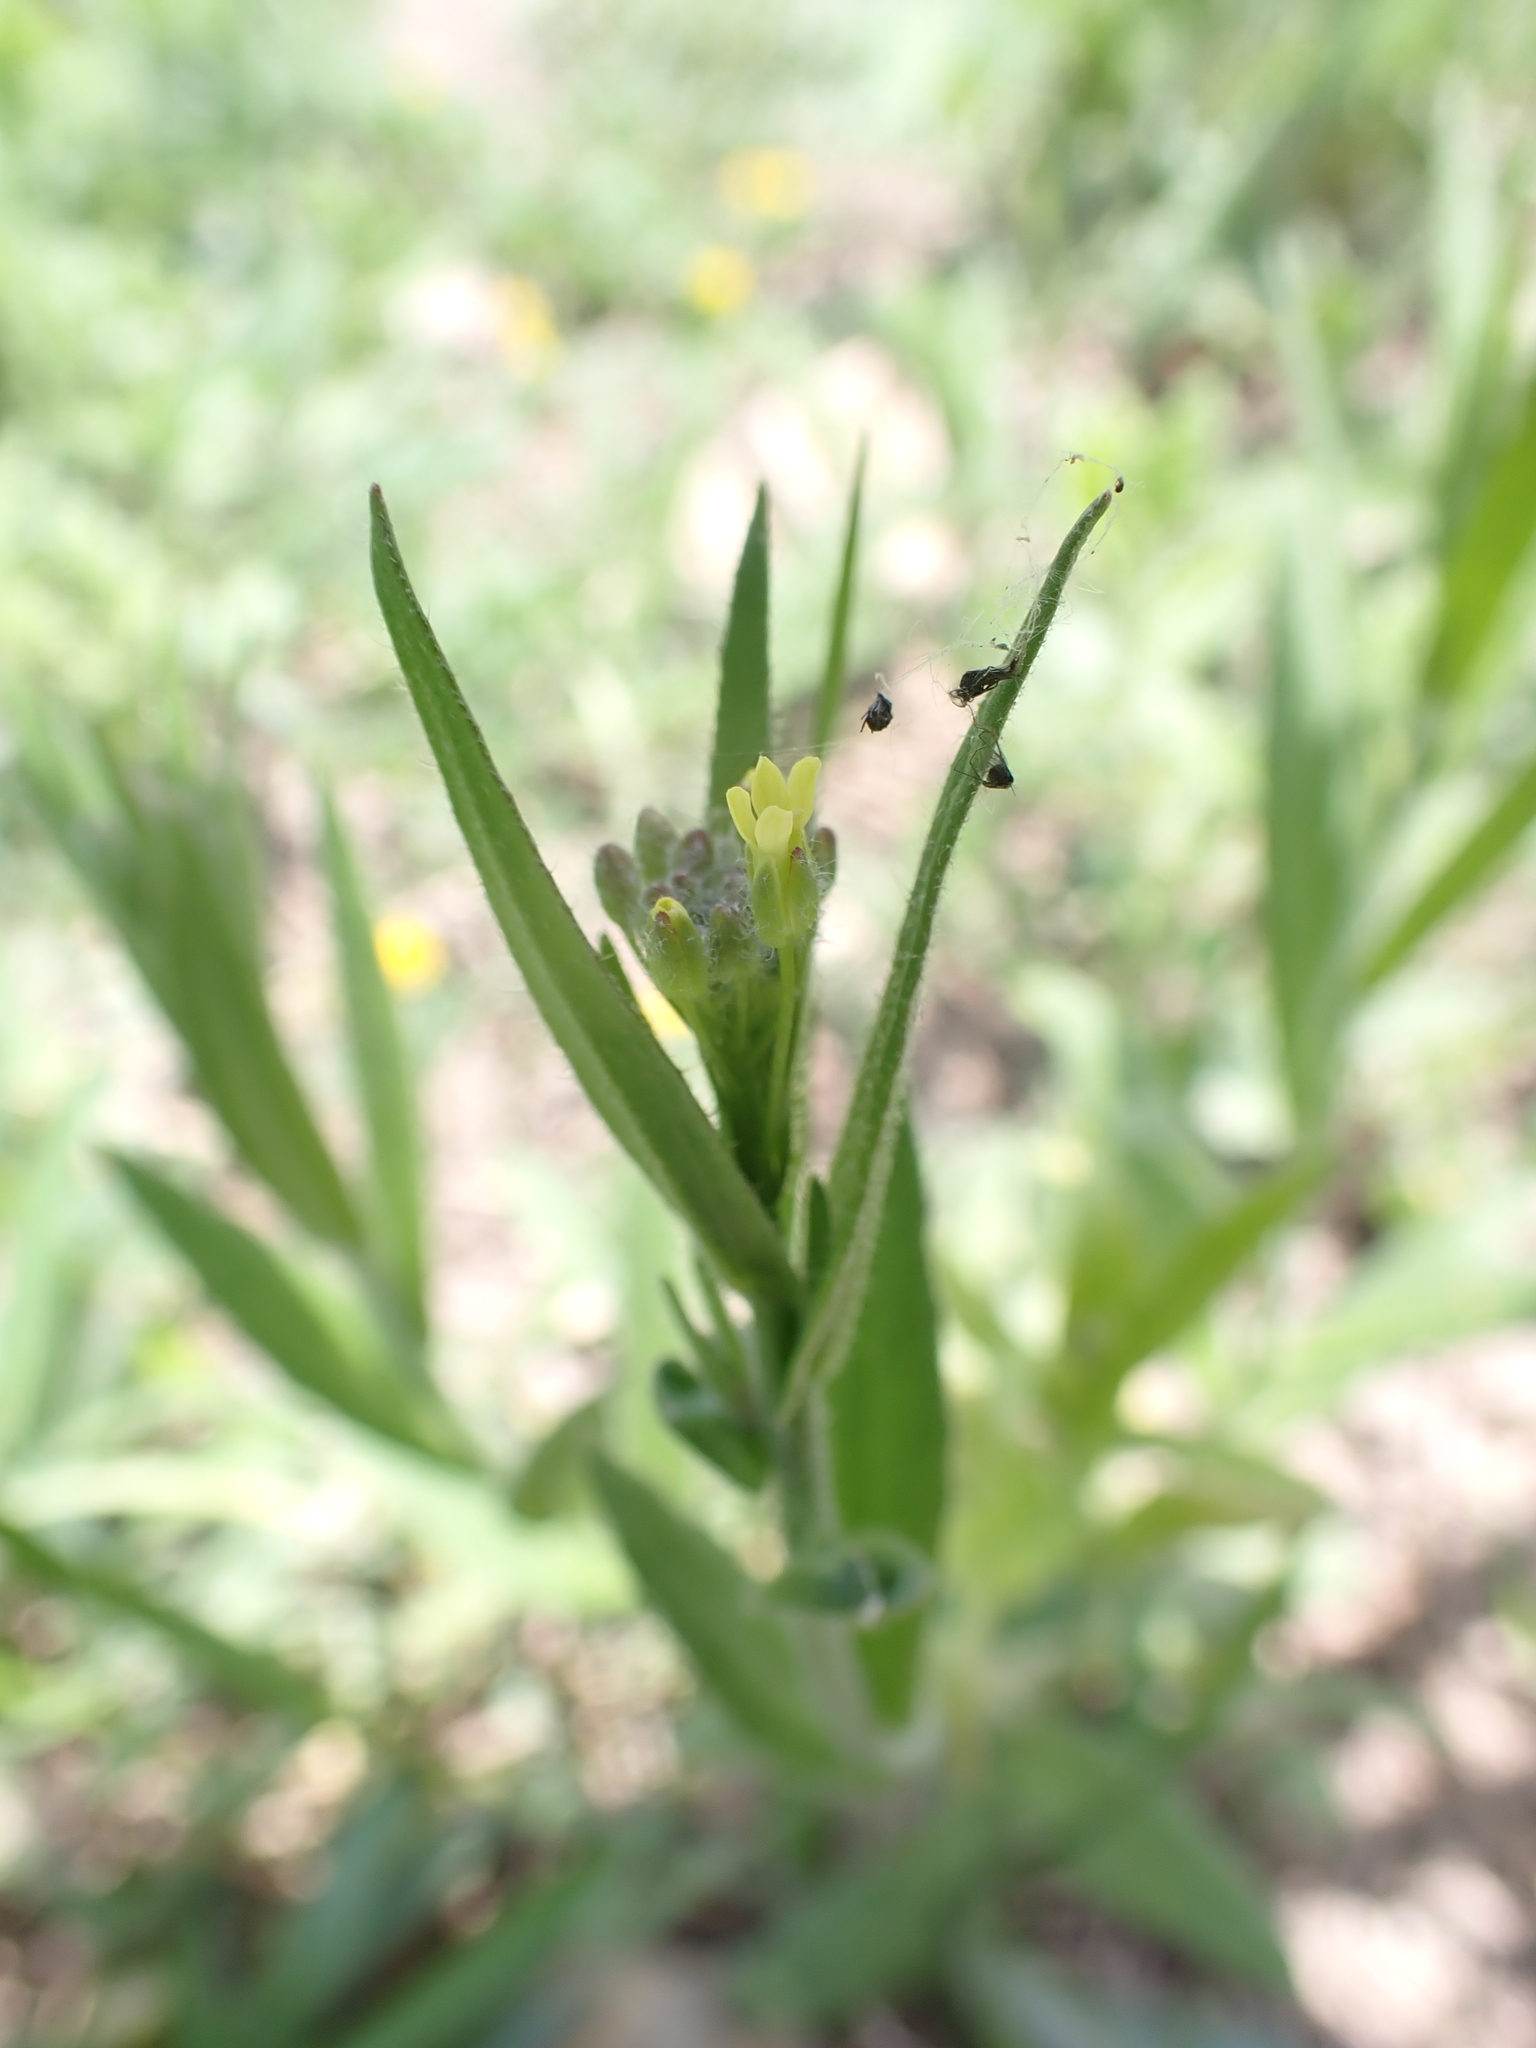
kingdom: Plantae
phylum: Tracheophyta
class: Magnoliopsida
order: Brassicales
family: Brassicaceae
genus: Camelina
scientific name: Camelina microcarpa
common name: Lesser gold-of-pleasure
